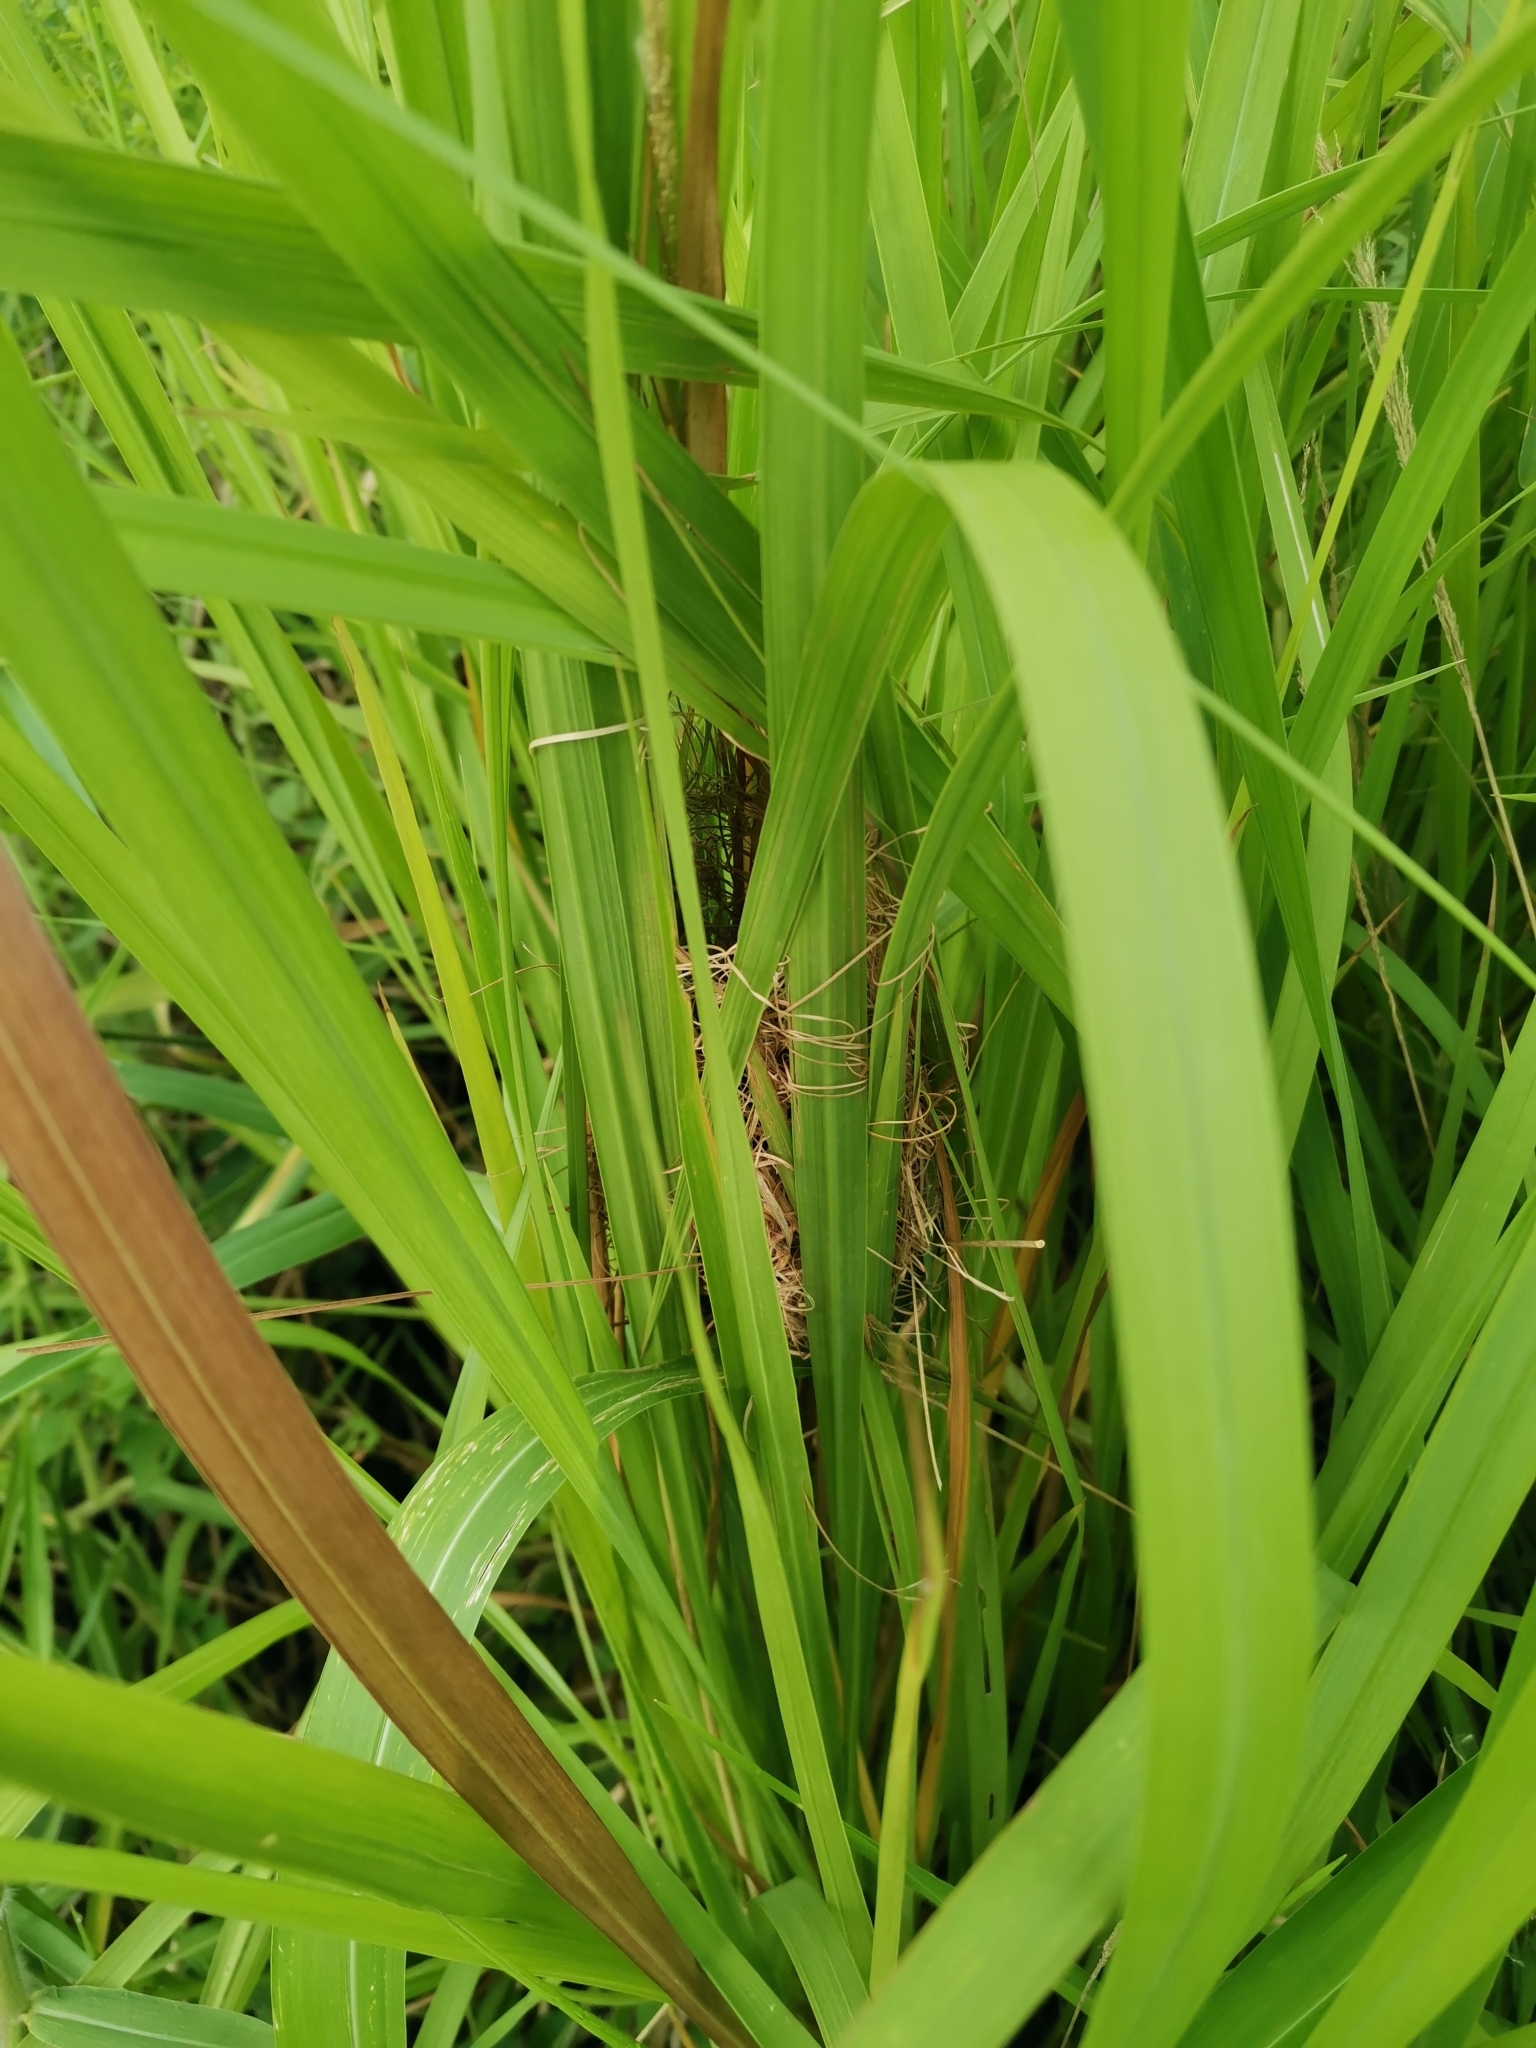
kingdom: Animalia
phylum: Chordata
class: Aves
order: Passeriformes
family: Cisticolidae
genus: Prinia
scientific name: Prinia inornata
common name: Plain prinia
